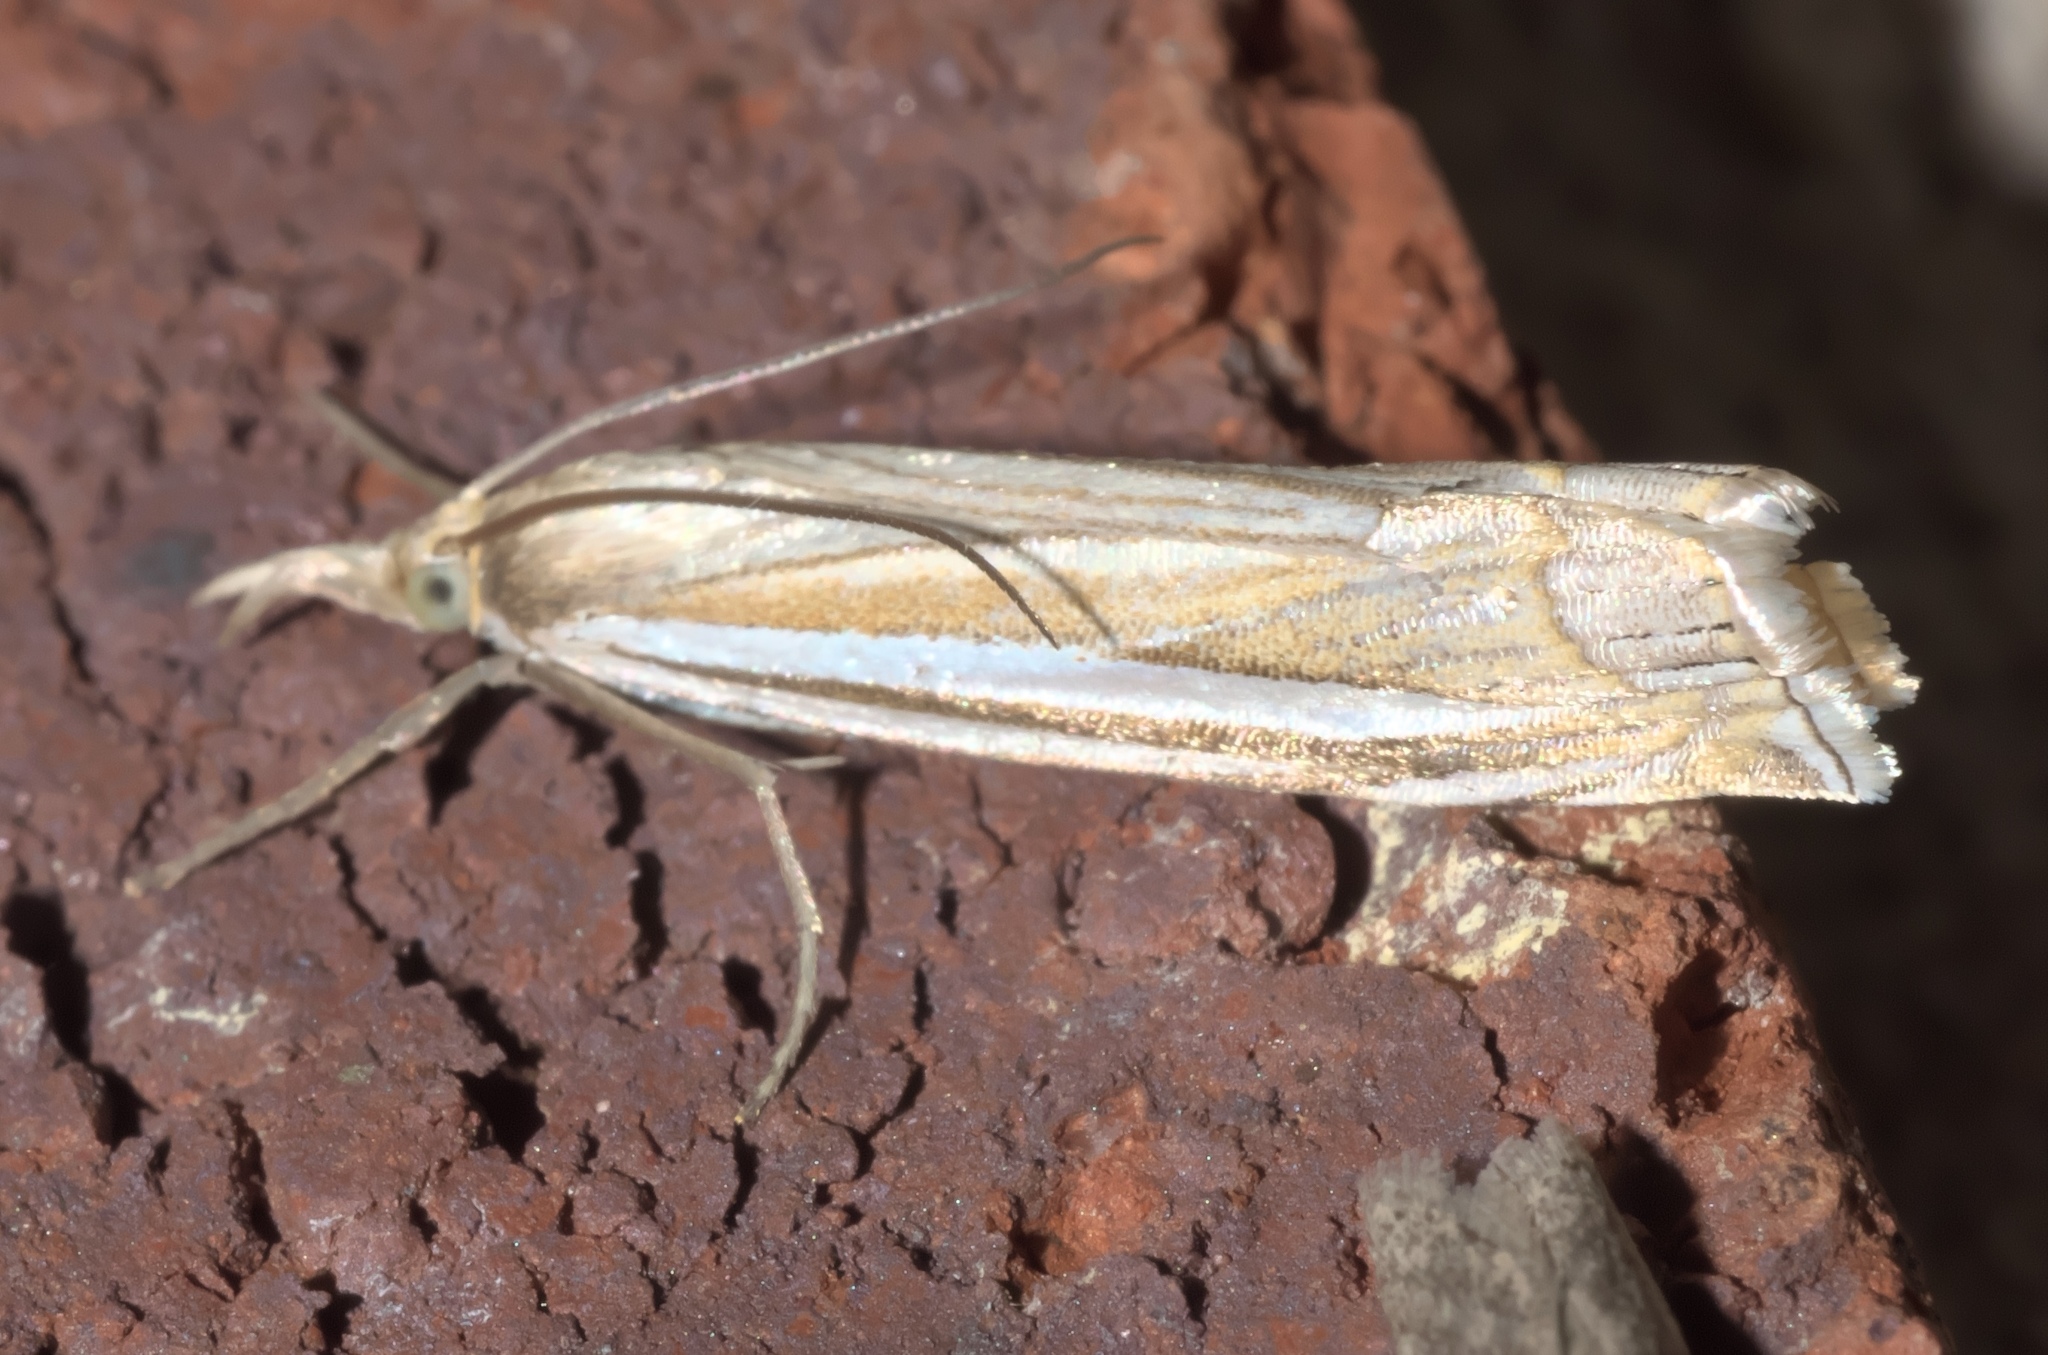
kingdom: Animalia
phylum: Arthropoda
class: Insecta
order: Lepidoptera
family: Crambidae
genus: Crambus
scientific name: Crambus laqueatellus
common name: Eastern grass-veneer
